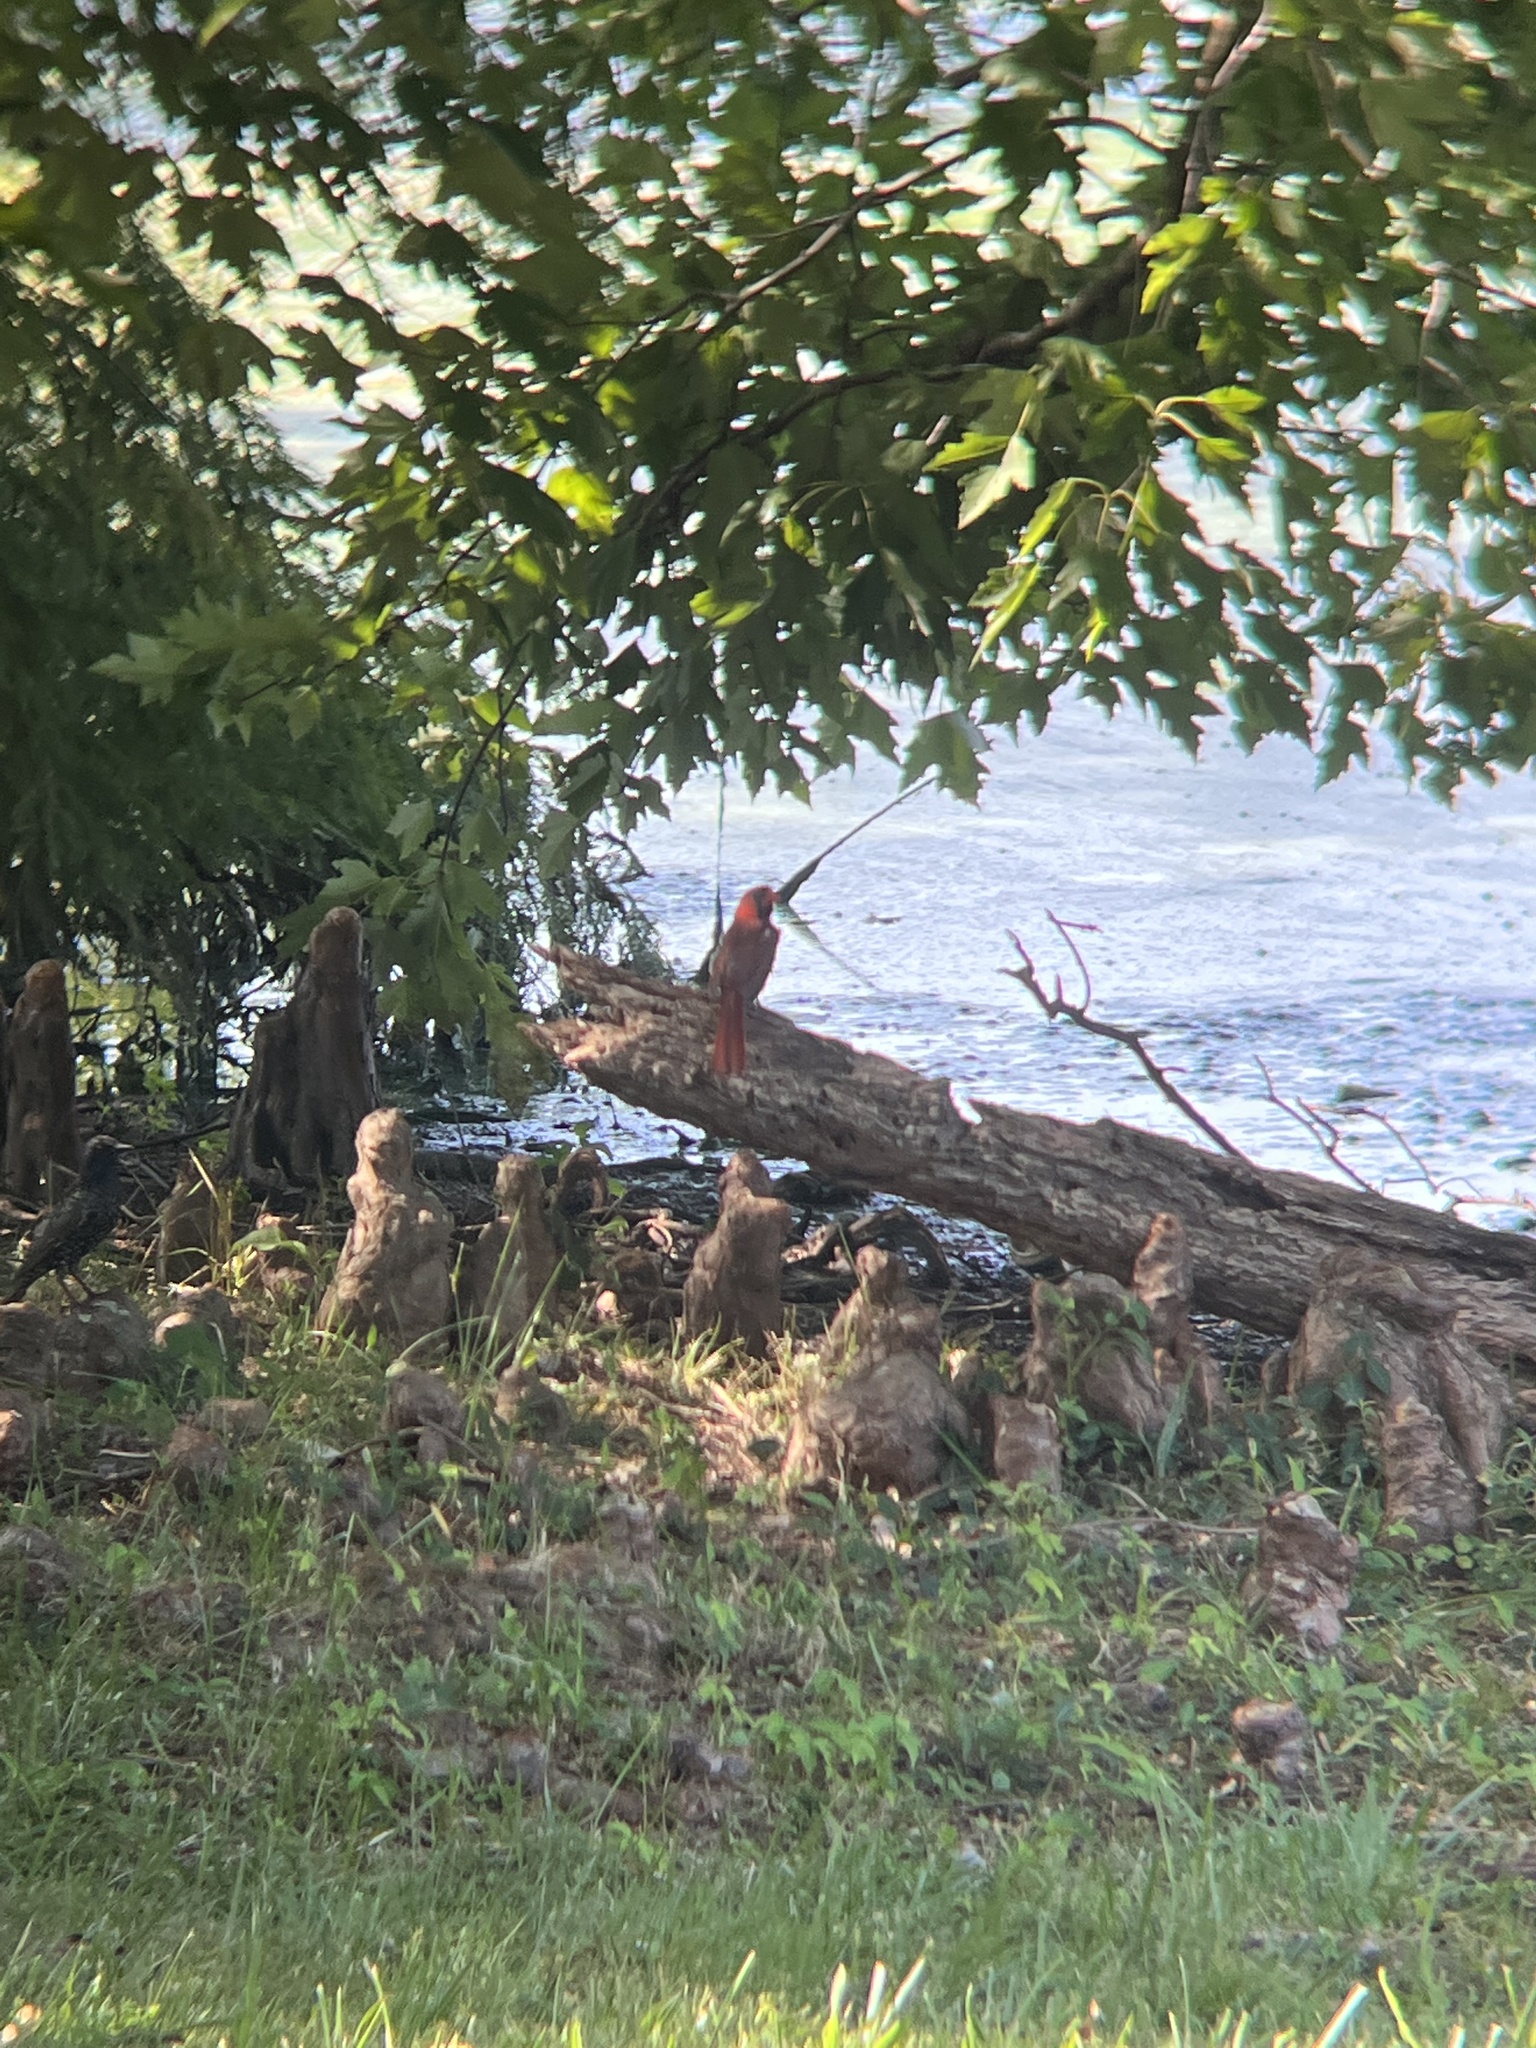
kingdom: Animalia
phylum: Chordata
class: Aves
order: Passeriformes
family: Cardinalidae
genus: Cardinalis
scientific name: Cardinalis cardinalis
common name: Northern cardinal
